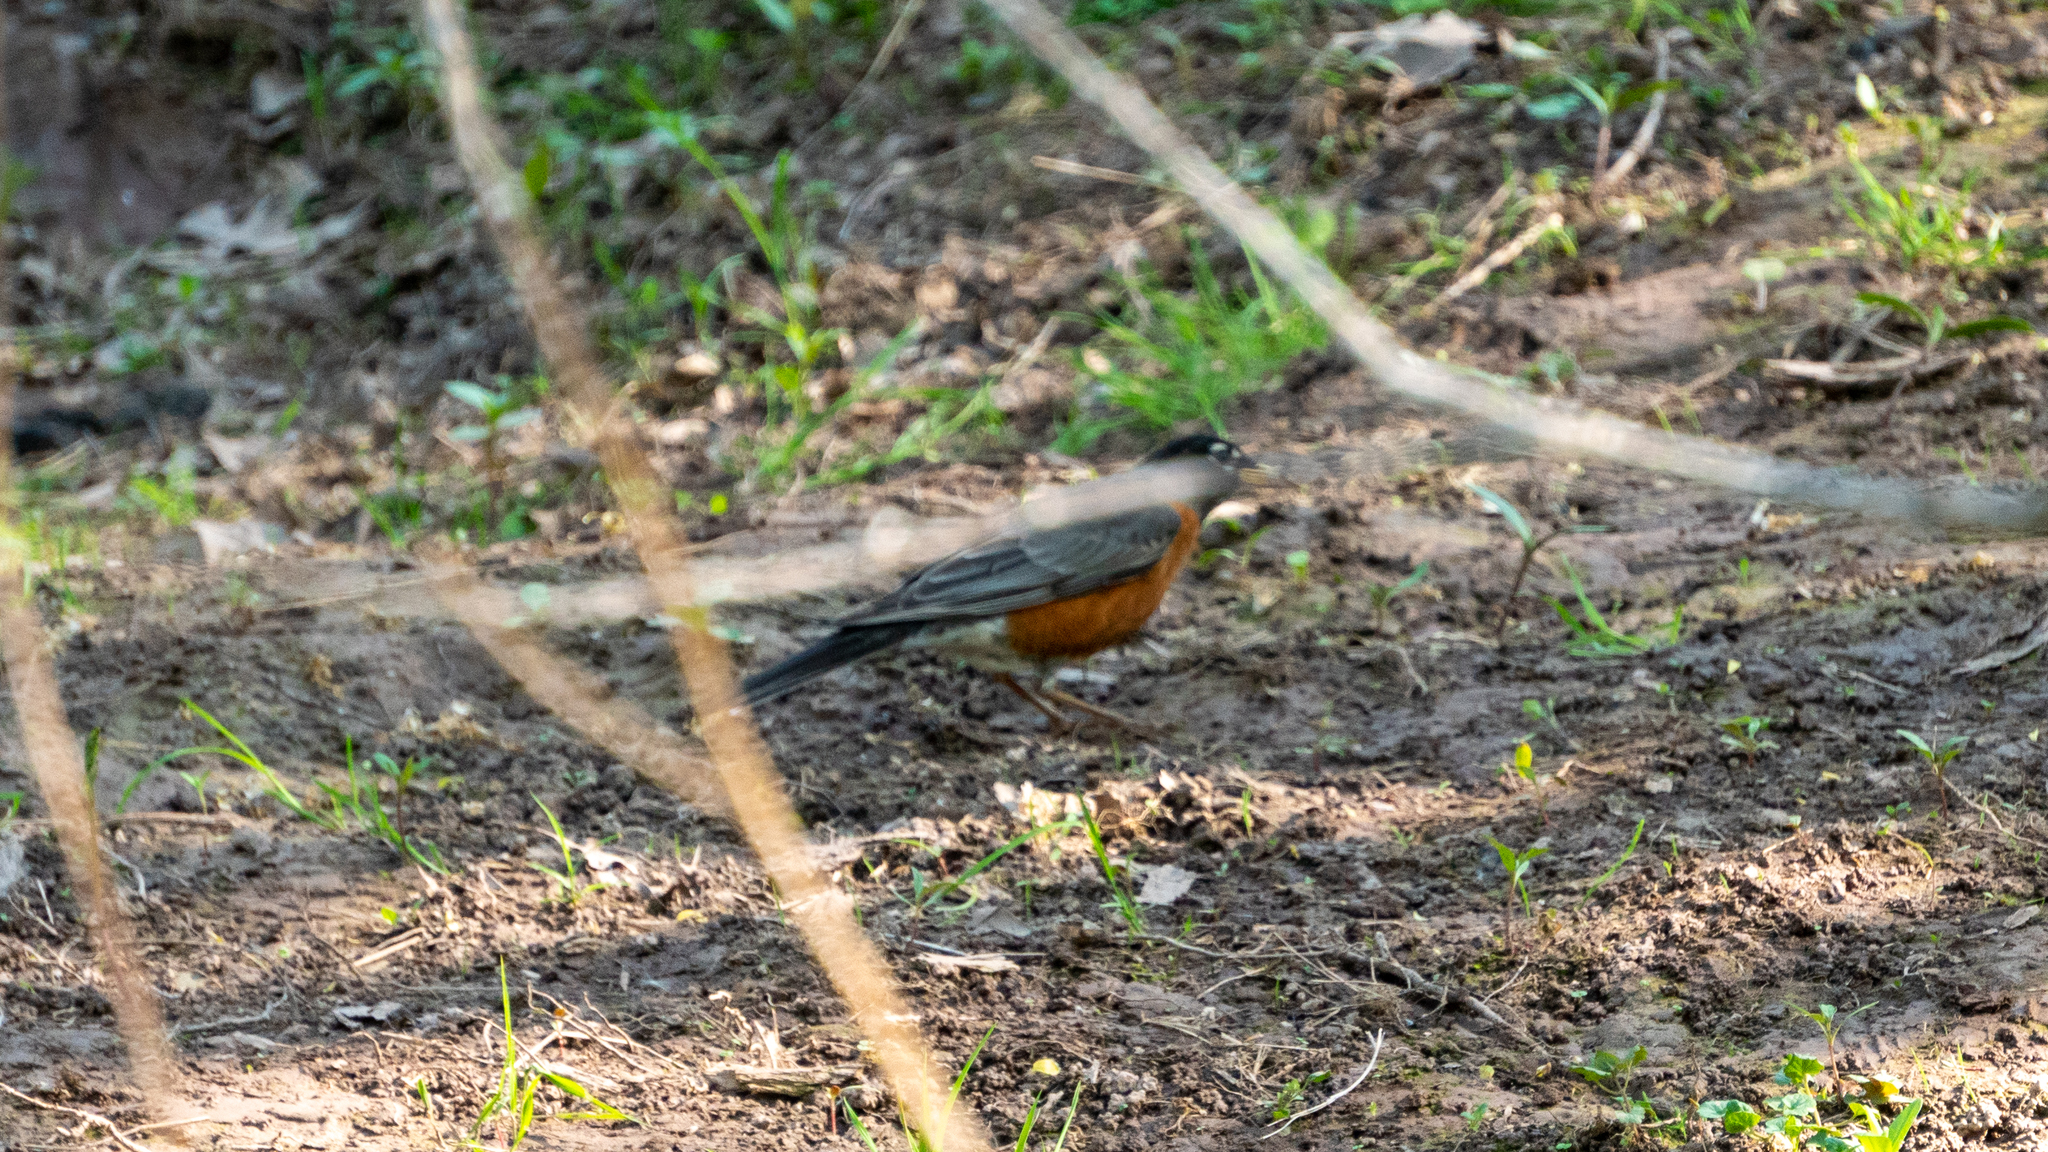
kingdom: Animalia
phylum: Chordata
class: Aves
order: Passeriformes
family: Turdidae
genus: Turdus
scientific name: Turdus migratorius
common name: American robin
